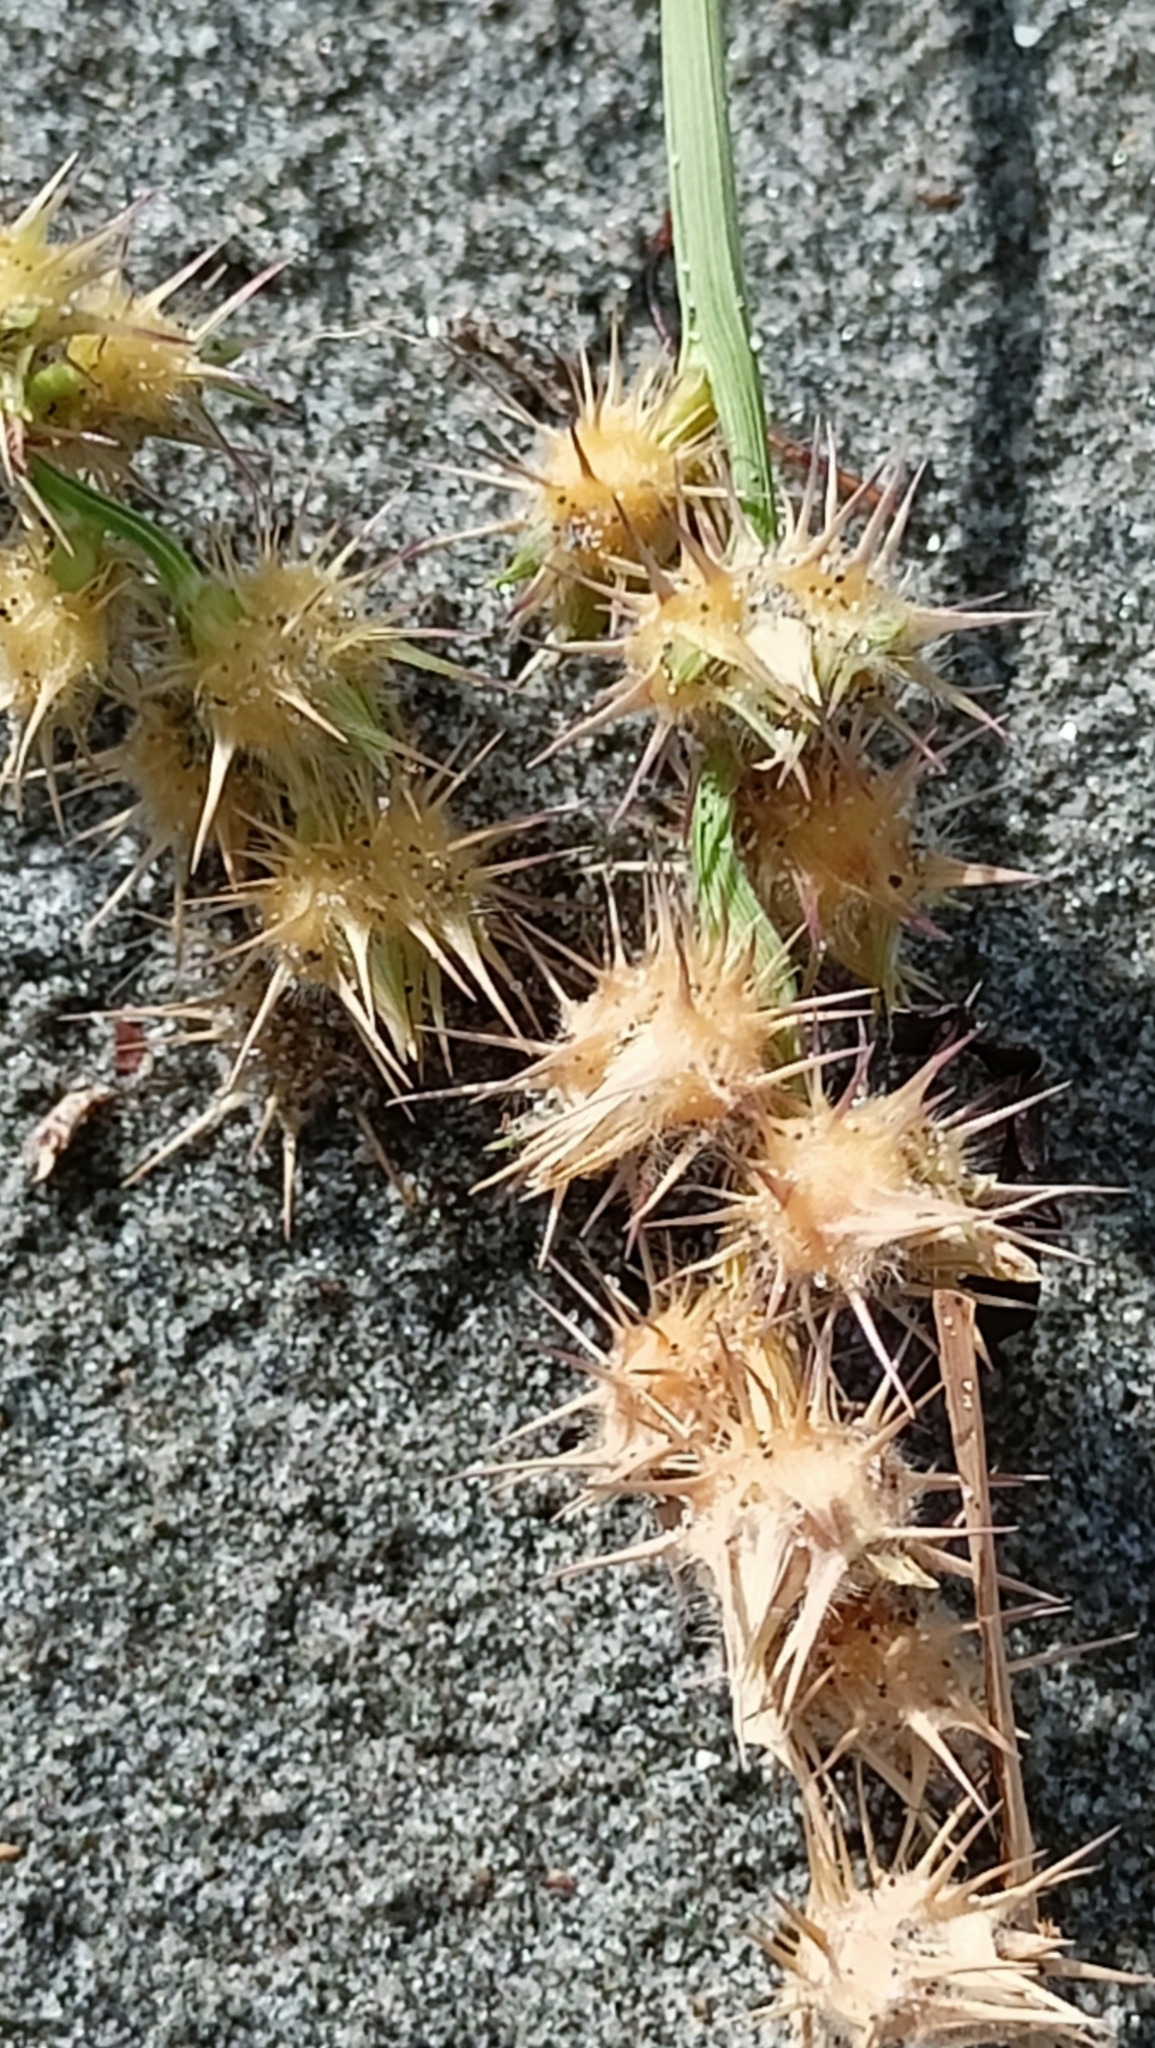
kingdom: Plantae
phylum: Tracheophyta
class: Liliopsida
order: Poales
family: Poaceae
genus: Cenchrus
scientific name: Cenchrus spinifex
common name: Coast sandbur
